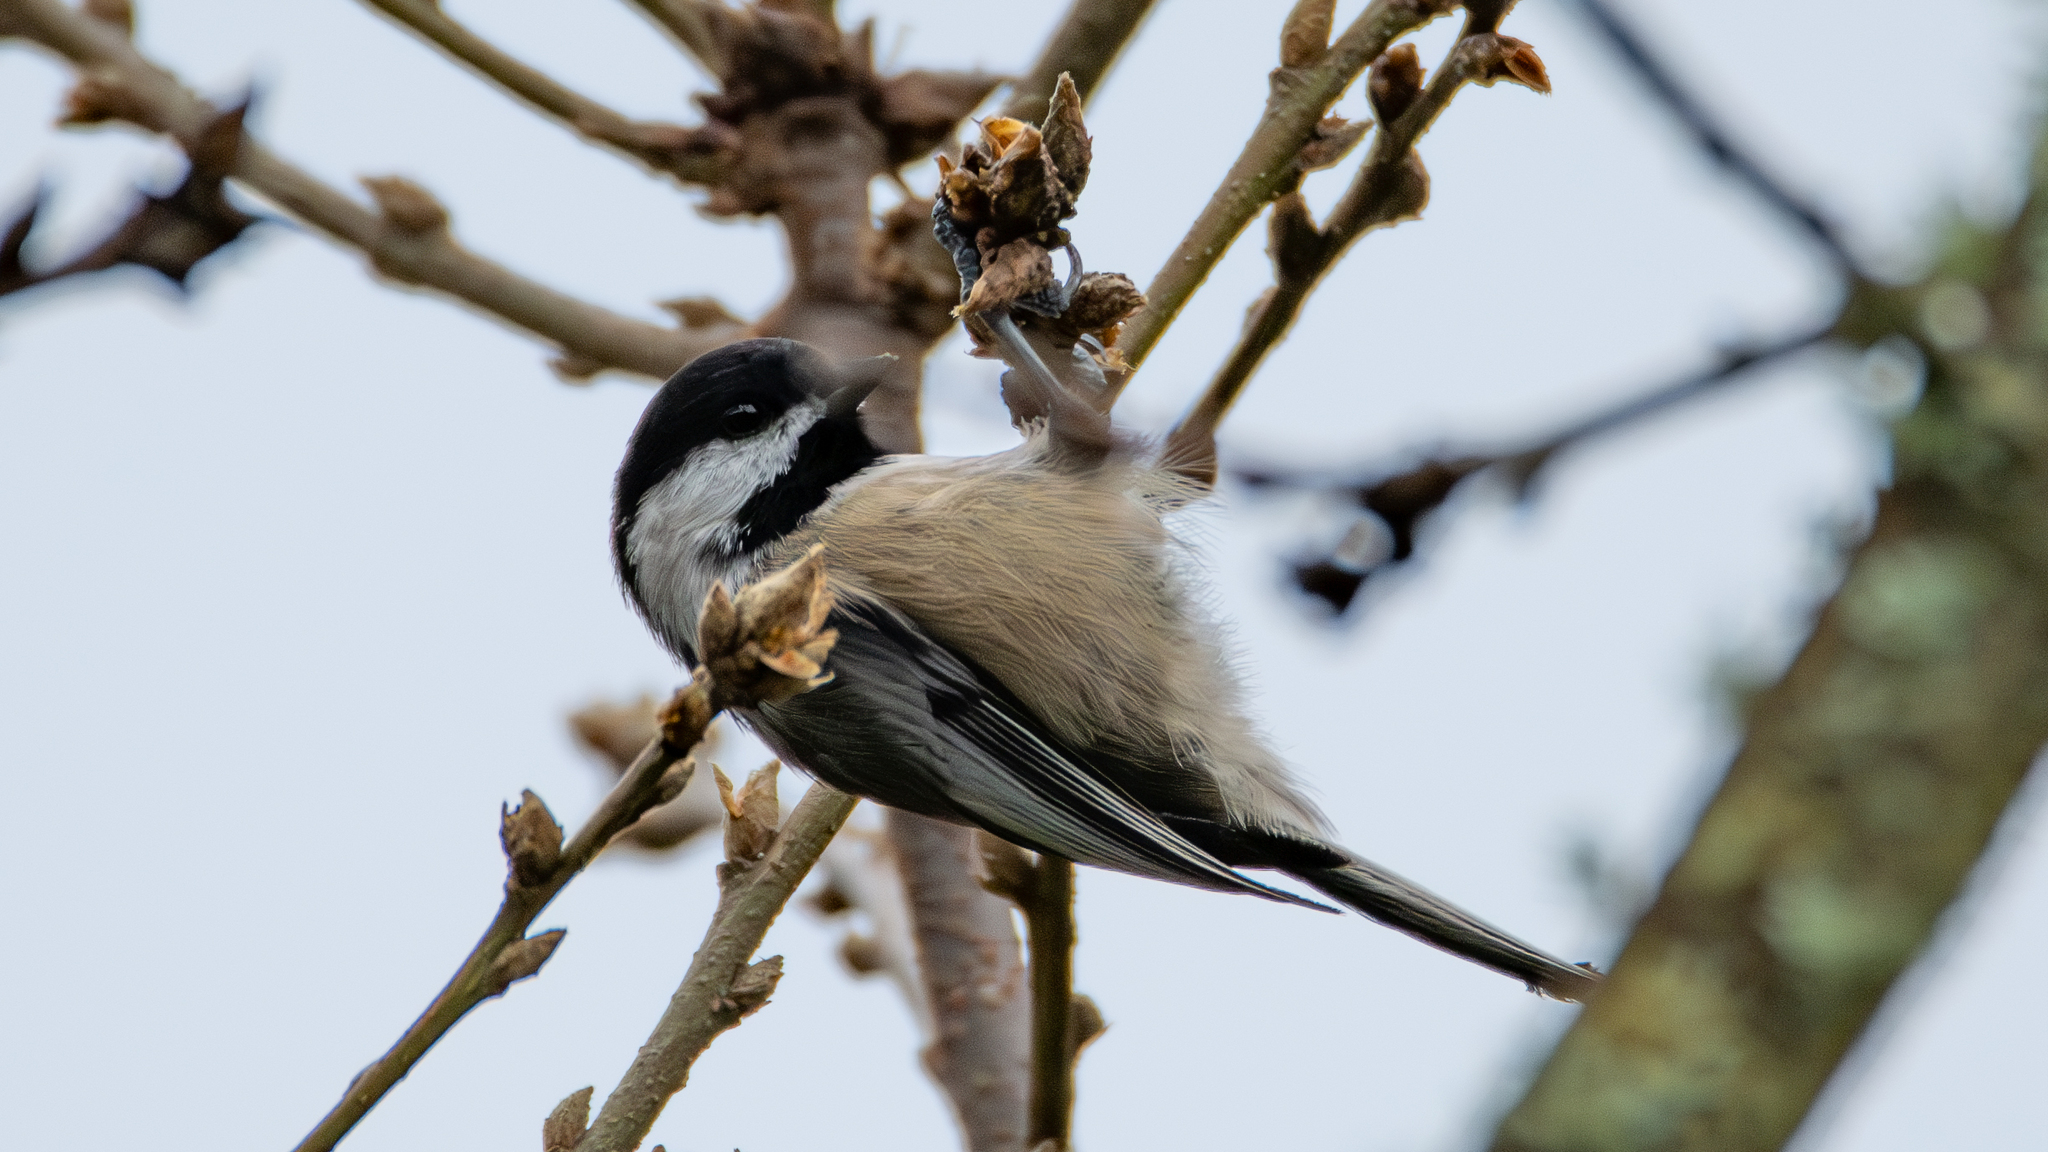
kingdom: Animalia
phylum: Chordata
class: Aves
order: Passeriformes
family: Paridae
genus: Poecile
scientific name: Poecile atricapillus
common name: Black-capped chickadee
